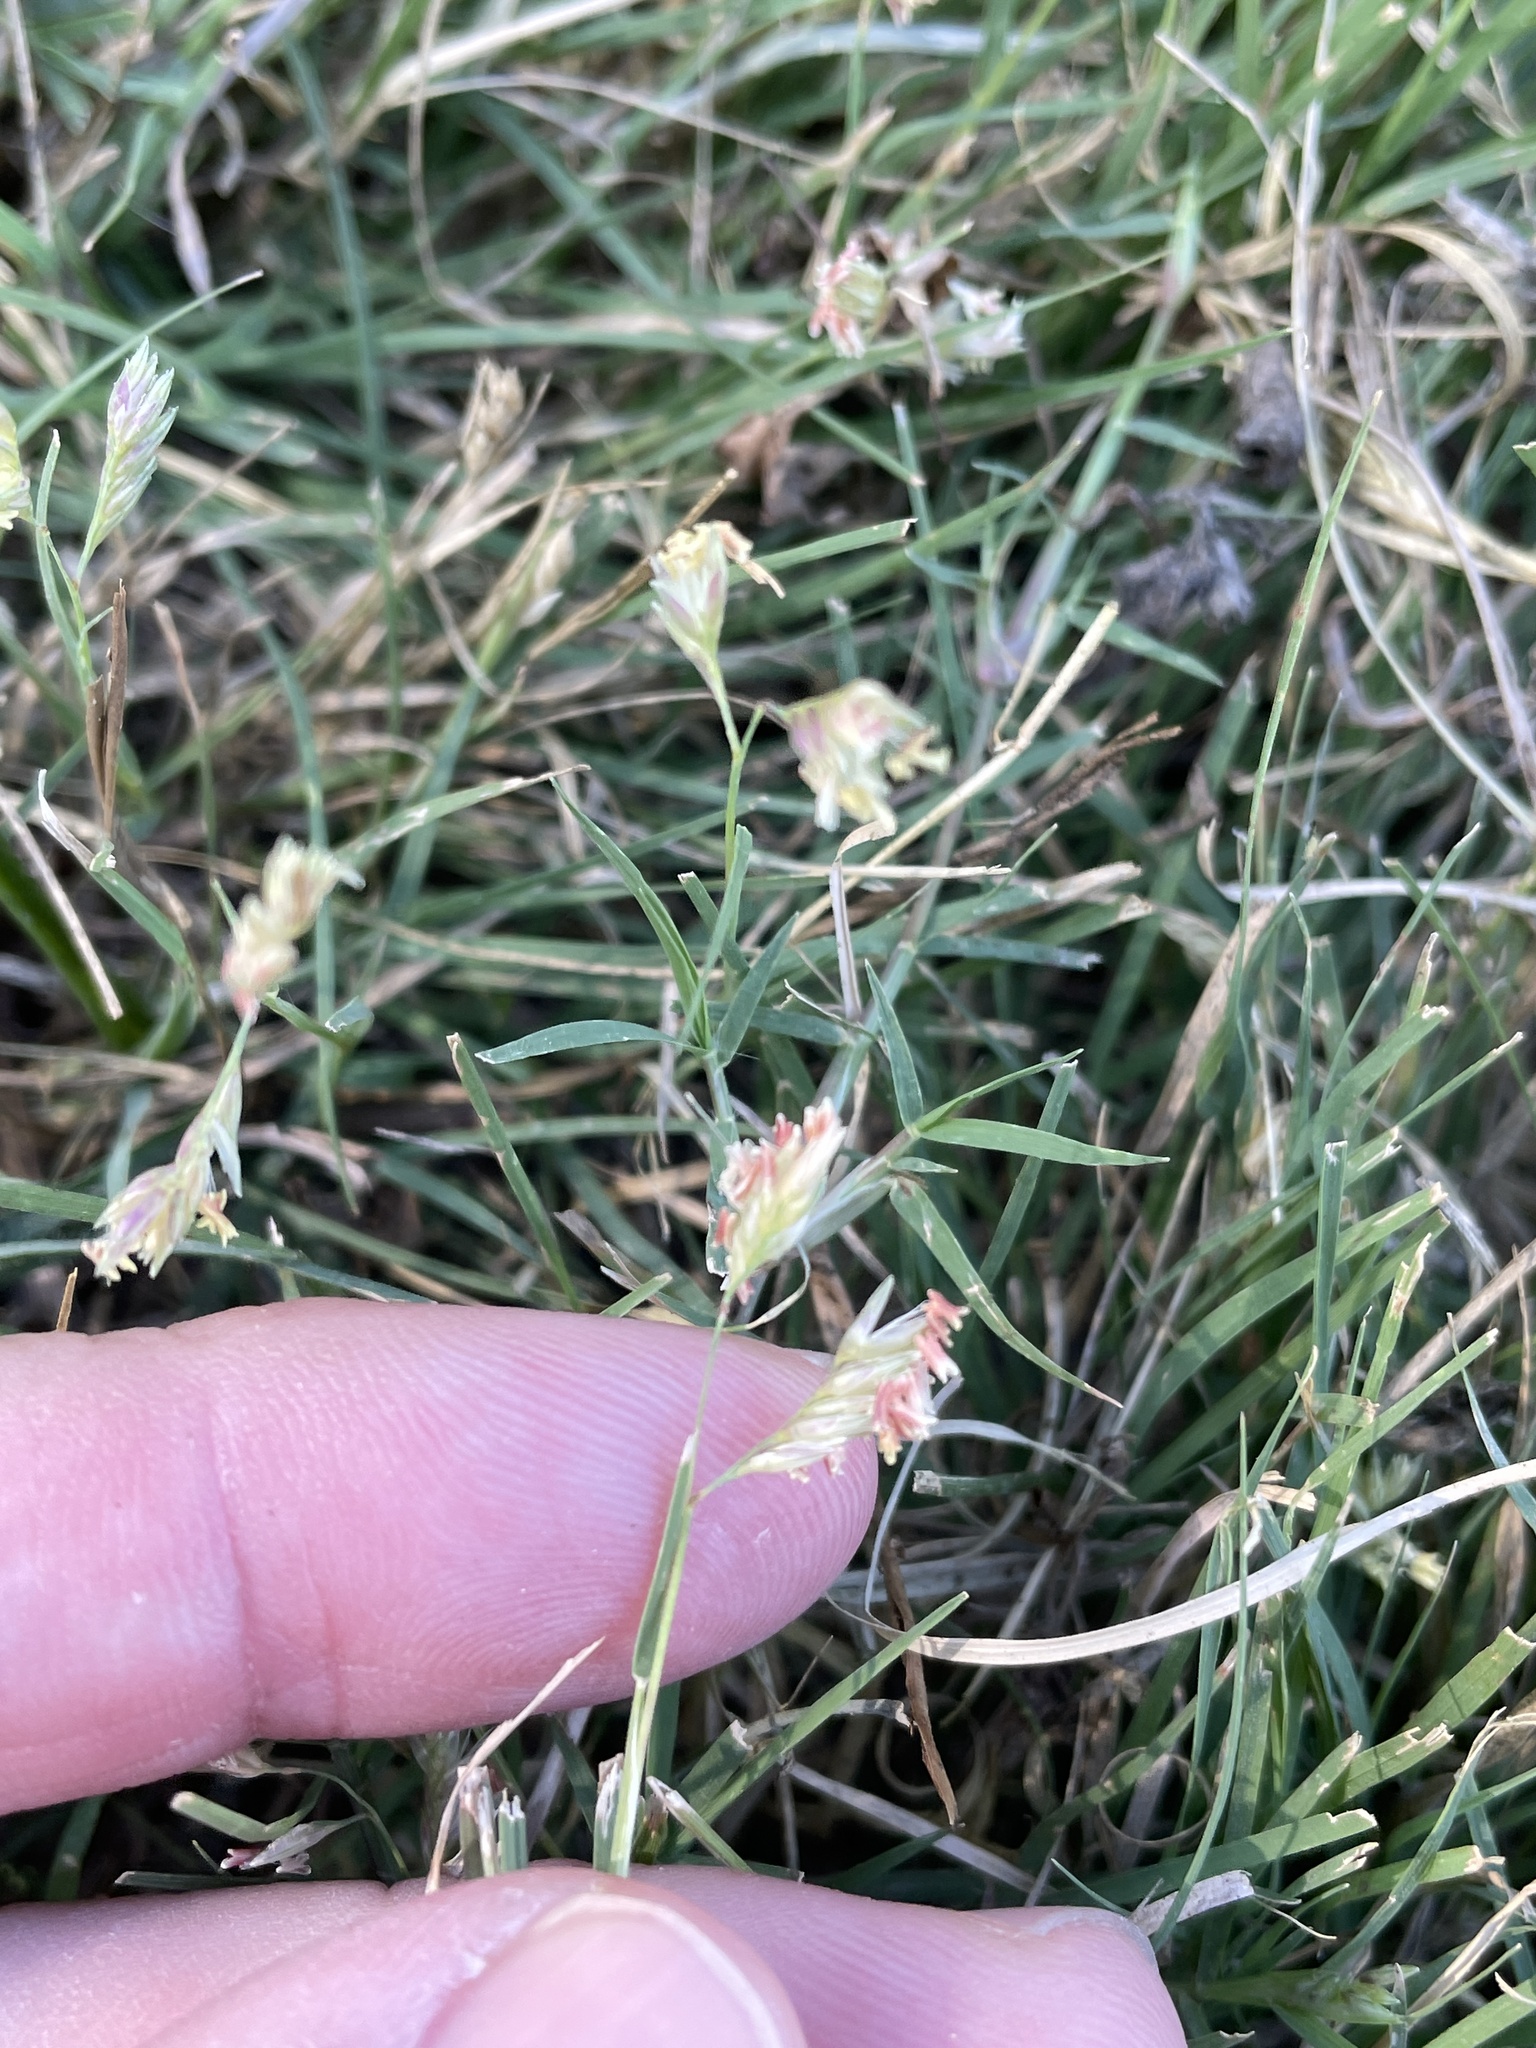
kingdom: Plantae
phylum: Tracheophyta
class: Liliopsida
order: Poales
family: Poaceae
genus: Bouteloua
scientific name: Bouteloua dactyloides
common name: Buffalo grass
